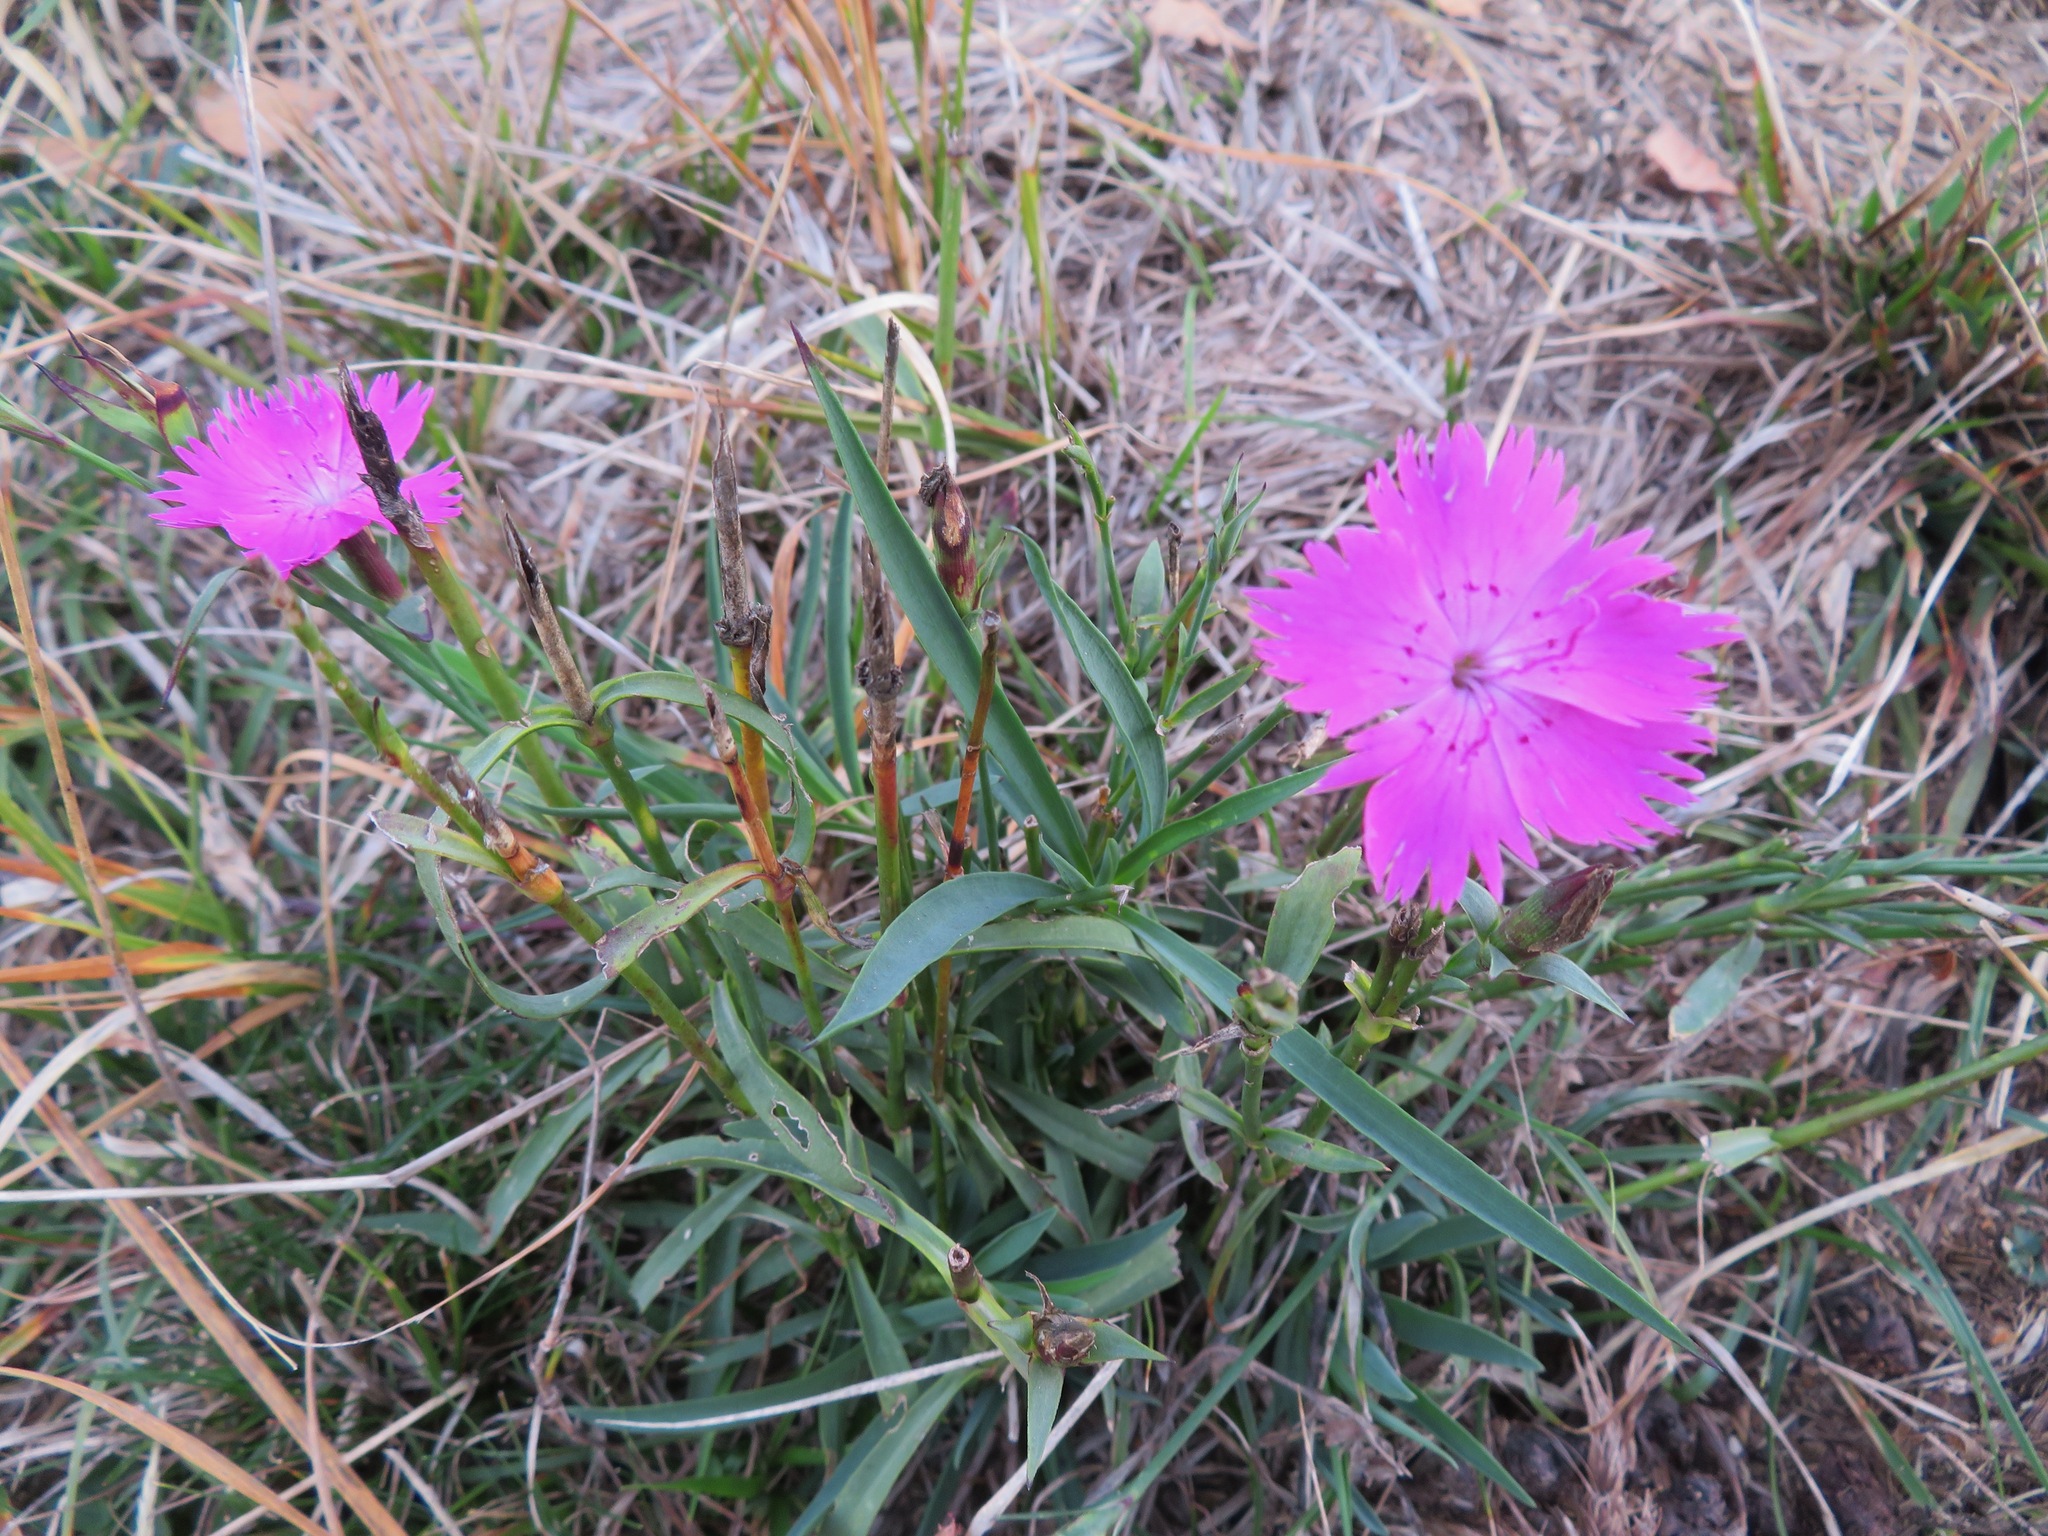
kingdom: Plantae
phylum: Tracheophyta
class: Magnoliopsida
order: Caryophyllales
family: Caryophyllaceae
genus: Dianthus
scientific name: Dianthus seguieri
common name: Ragged pink
